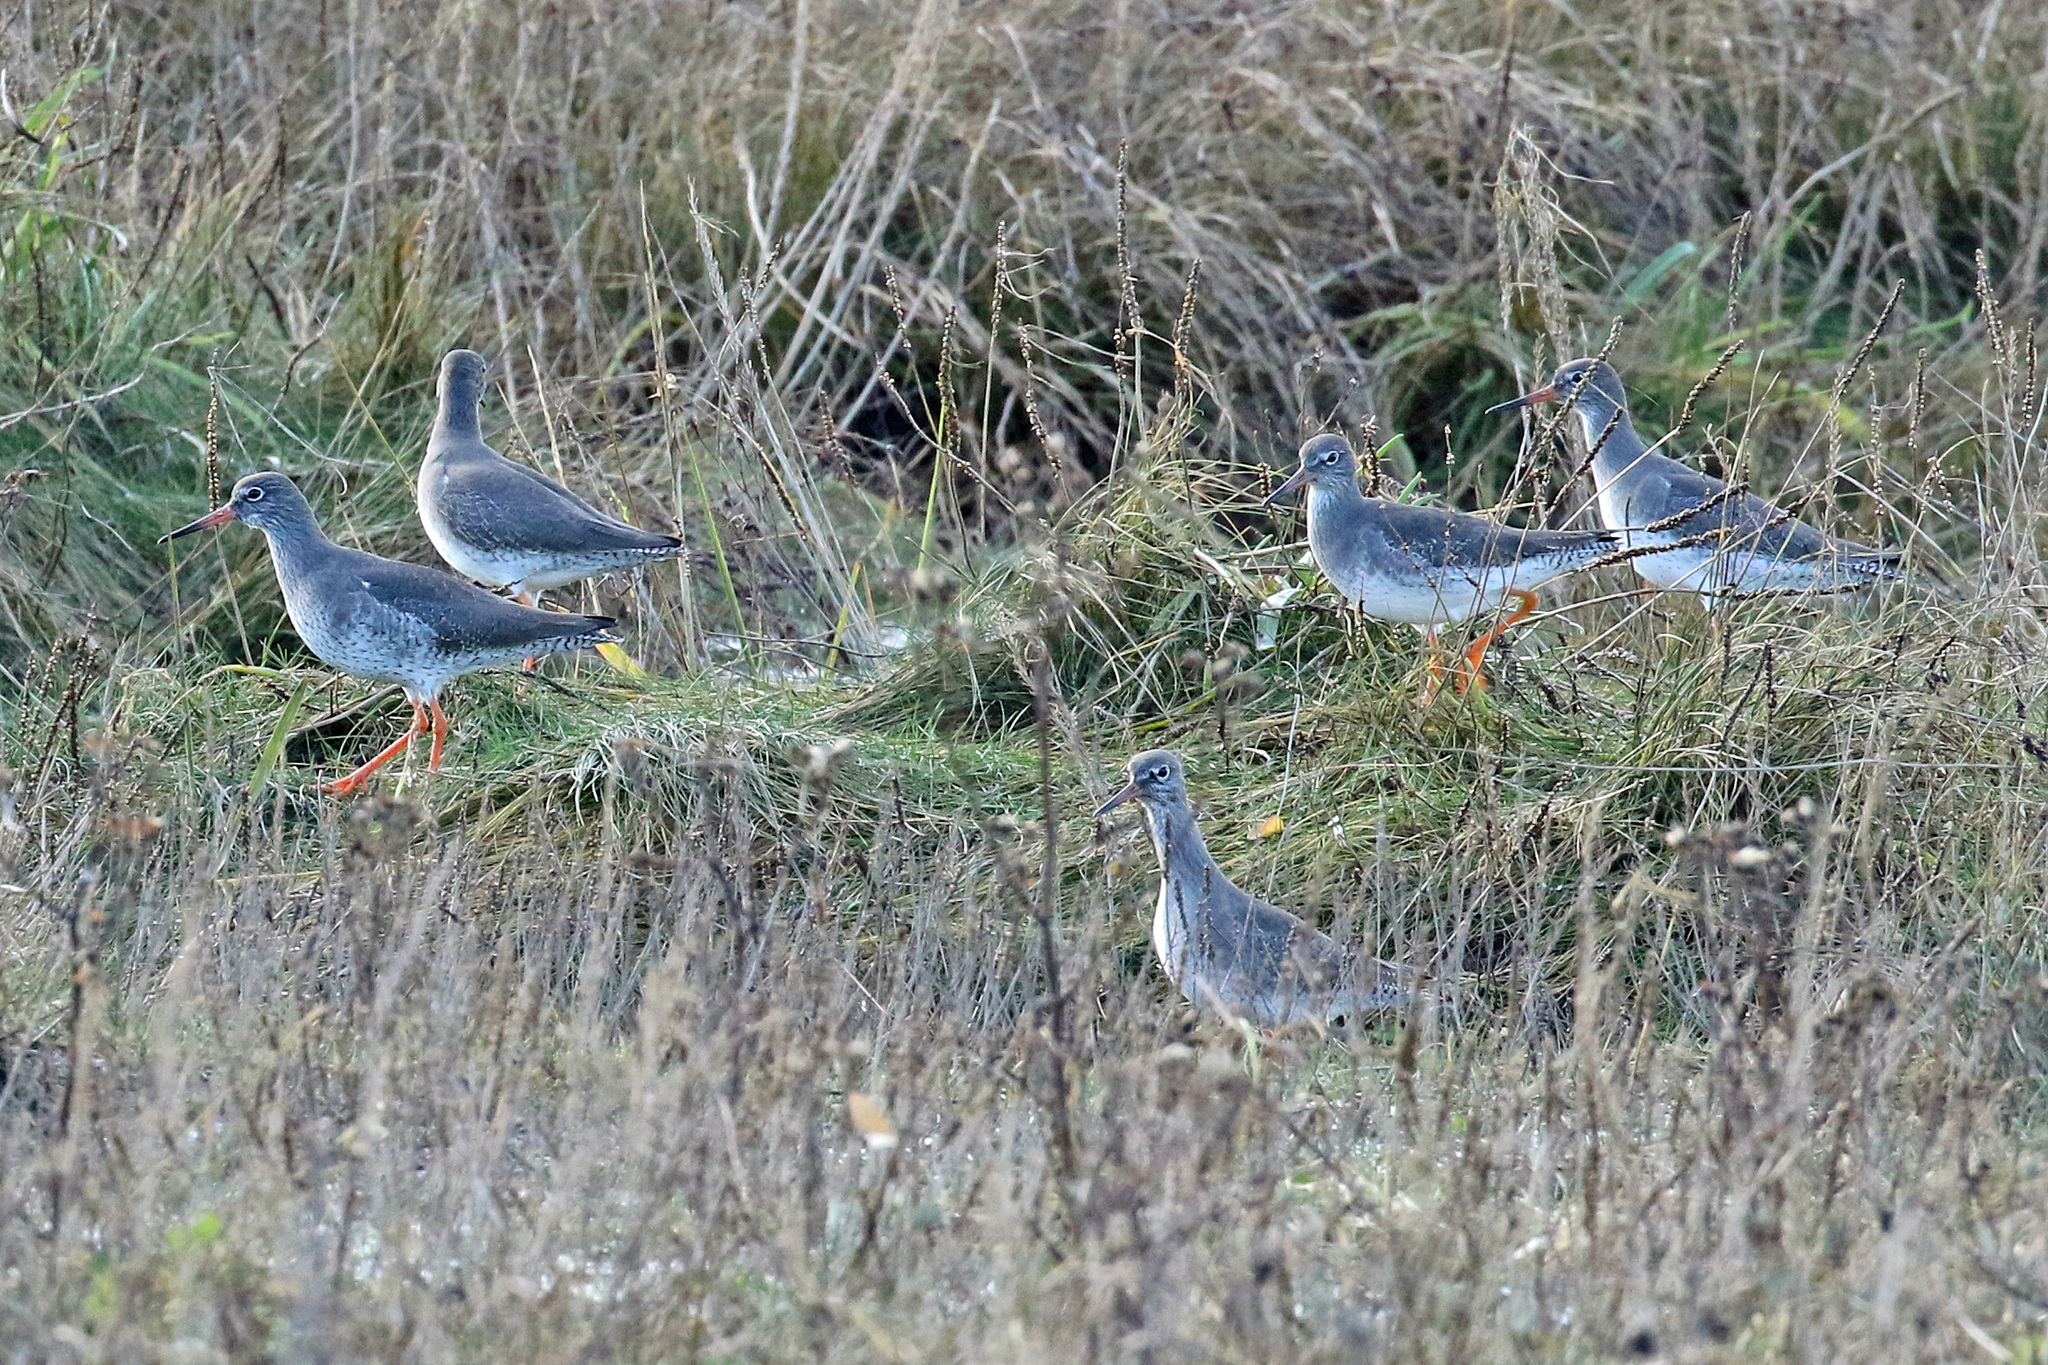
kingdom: Animalia
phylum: Chordata
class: Aves
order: Charadriiformes
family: Scolopacidae
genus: Tringa
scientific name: Tringa totanus
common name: Common redshank
